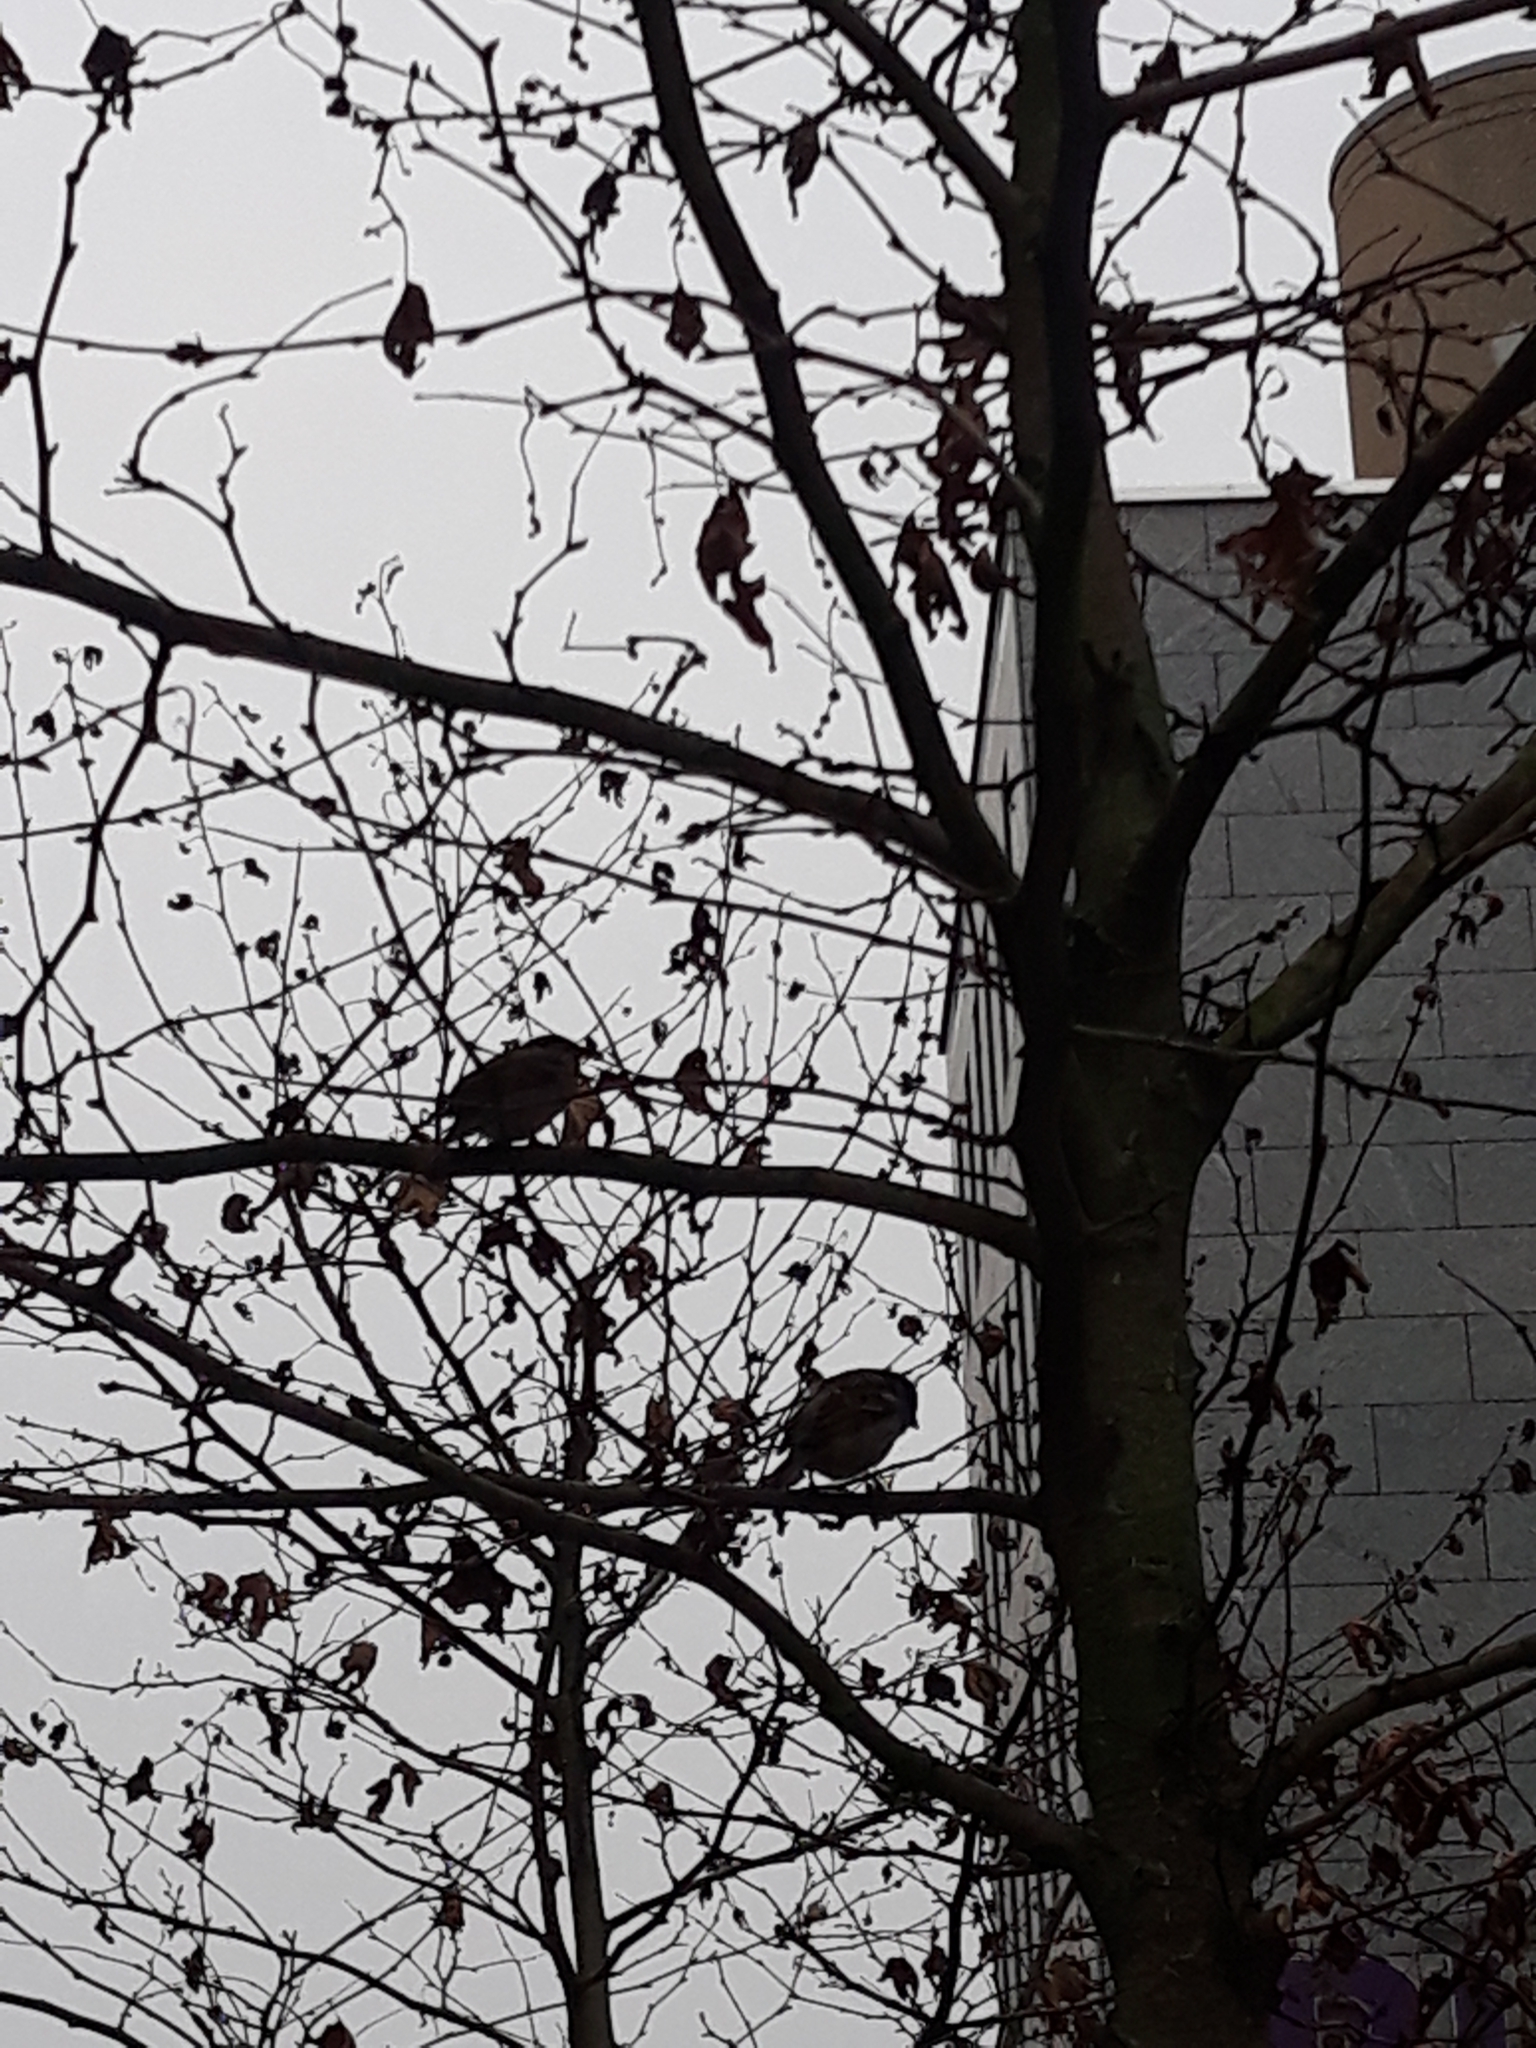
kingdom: Animalia
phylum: Chordata
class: Aves
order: Passeriformes
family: Passeridae
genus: Passer
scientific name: Passer domesticus
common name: House sparrow
